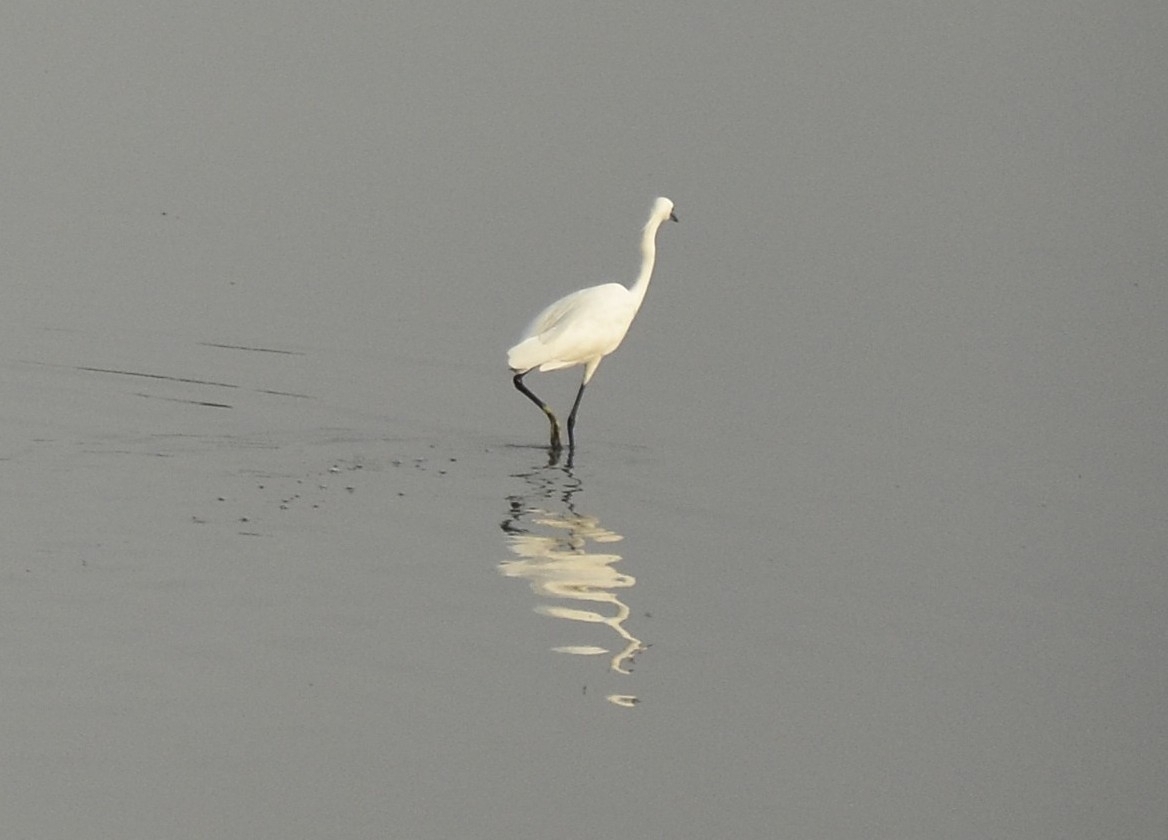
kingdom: Animalia
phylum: Chordata
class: Aves
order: Pelecaniformes
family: Ardeidae
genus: Egretta
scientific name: Egretta garzetta
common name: Little egret
